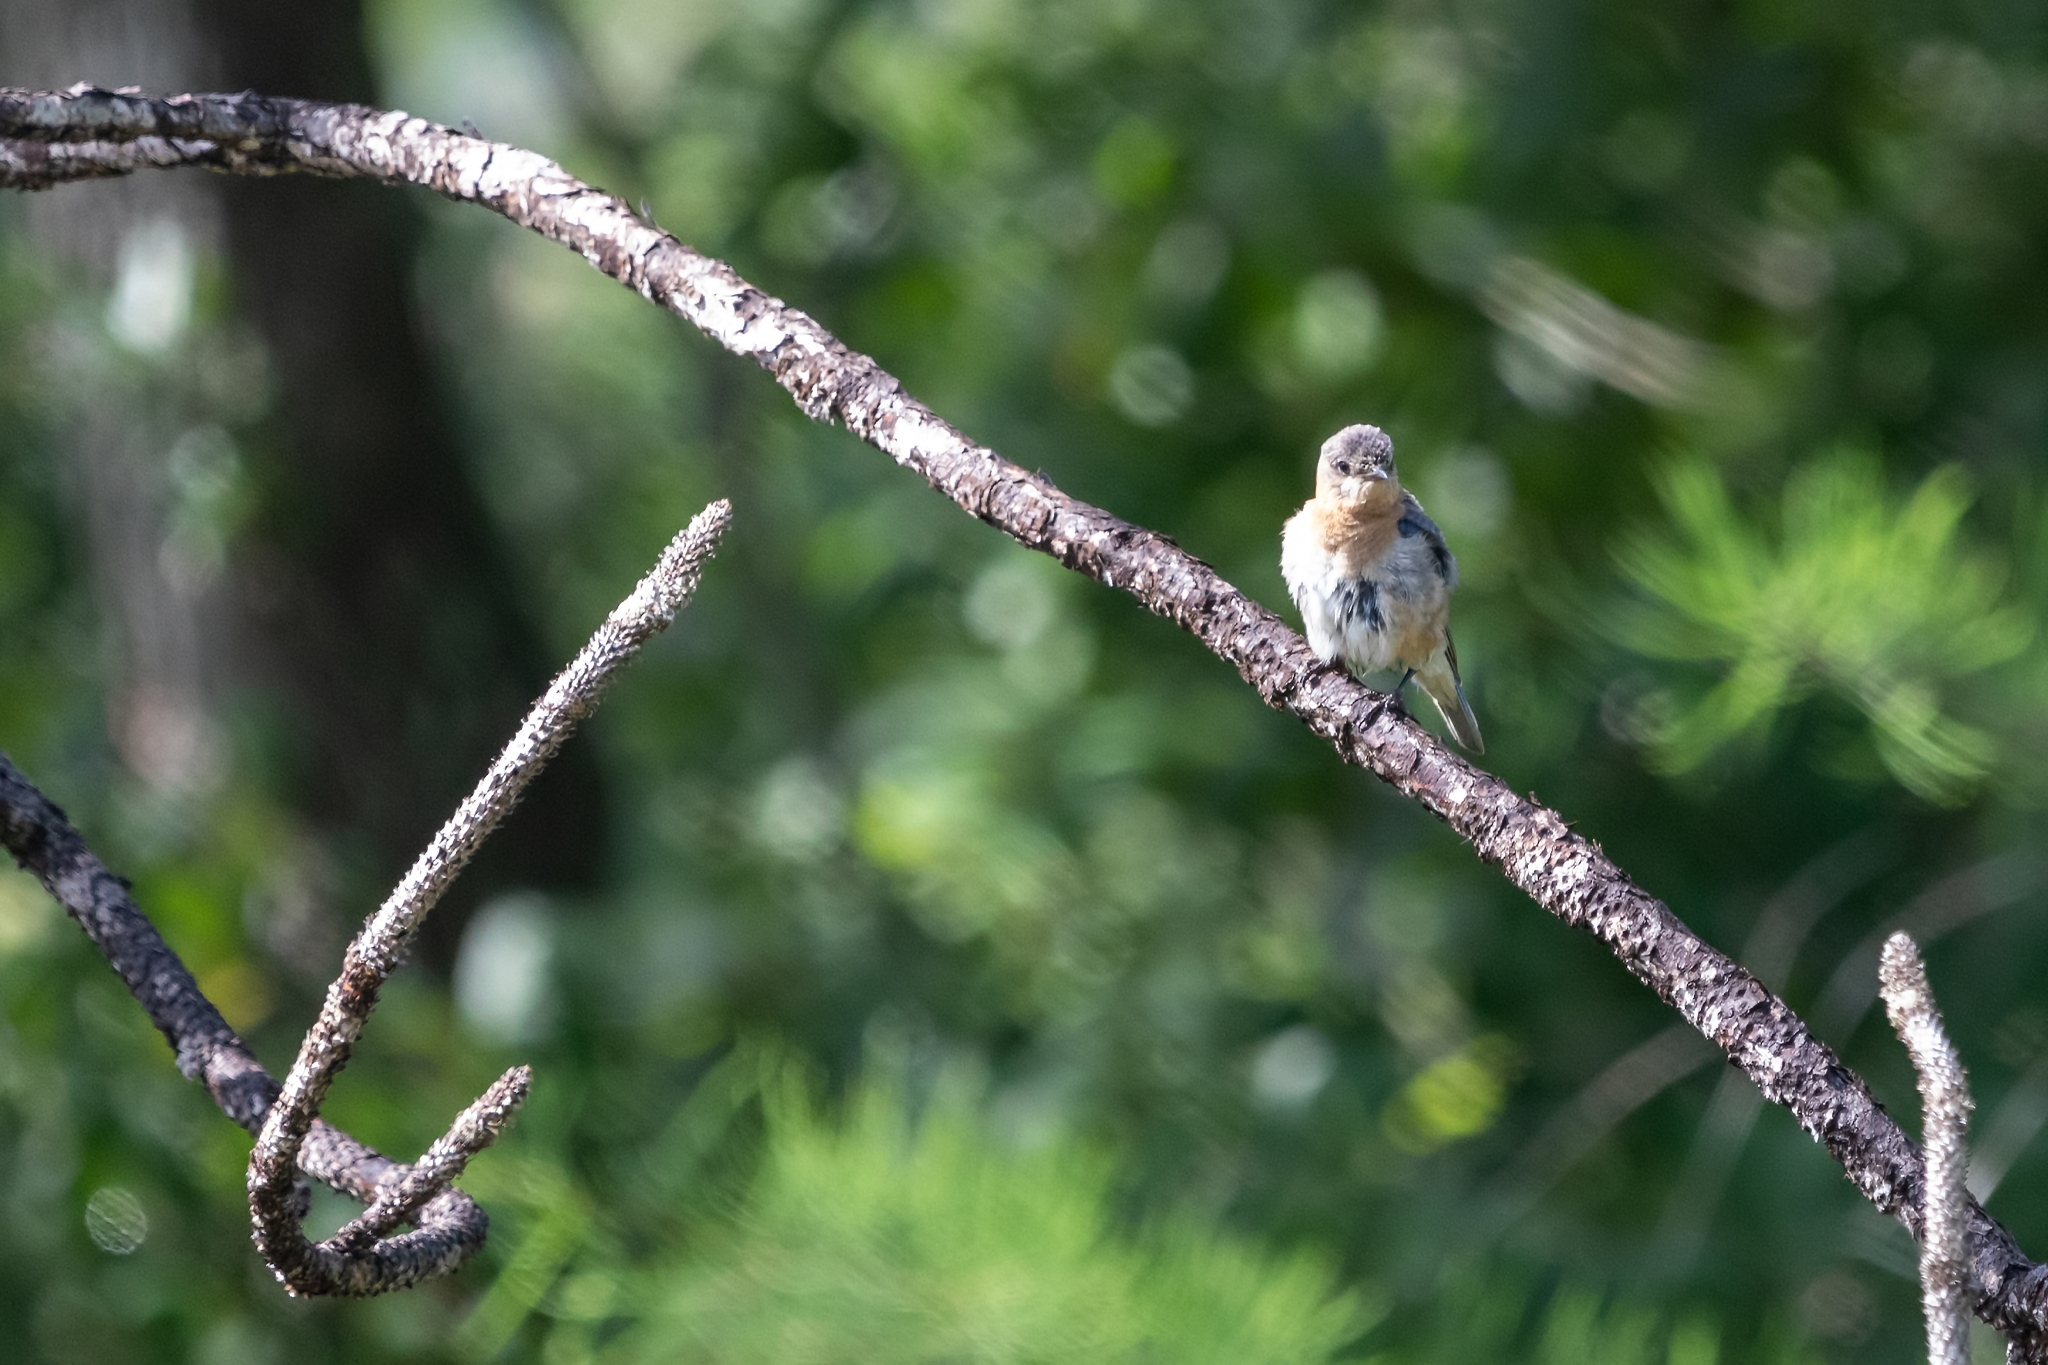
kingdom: Animalia
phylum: Chordata
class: Aves
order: Passeriformes
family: Turdidae
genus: Sialia
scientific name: Sialia sialis
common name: Eastern bluebird
